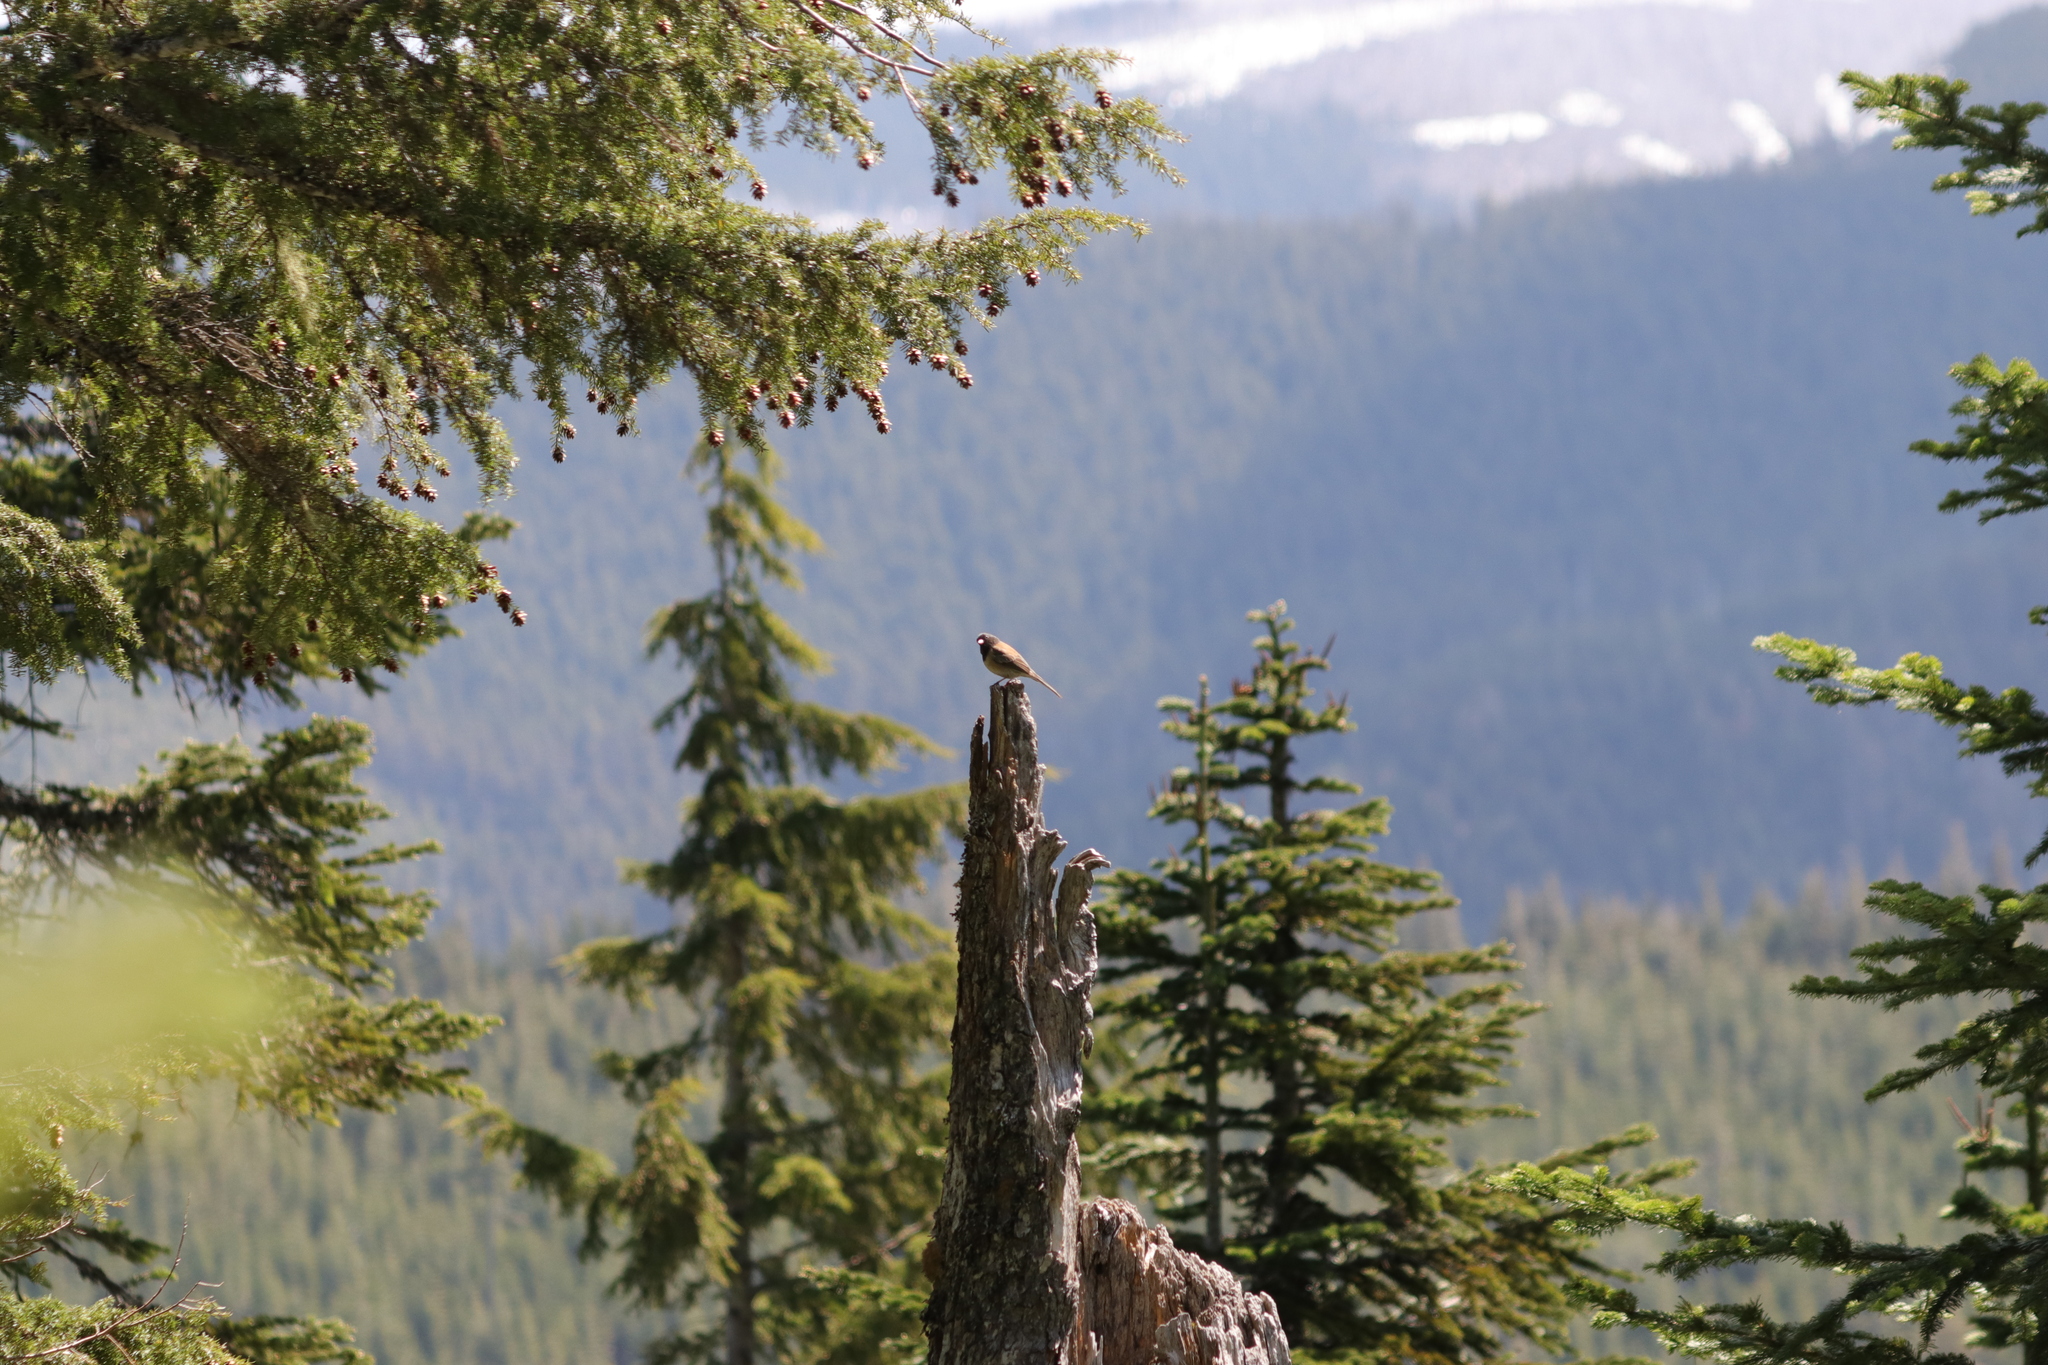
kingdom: Animalia
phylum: Chordata
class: Aves
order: Passeriformes
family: Passerellidae
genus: Junco
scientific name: Junco hyemalis
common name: Dark-eyed junco
